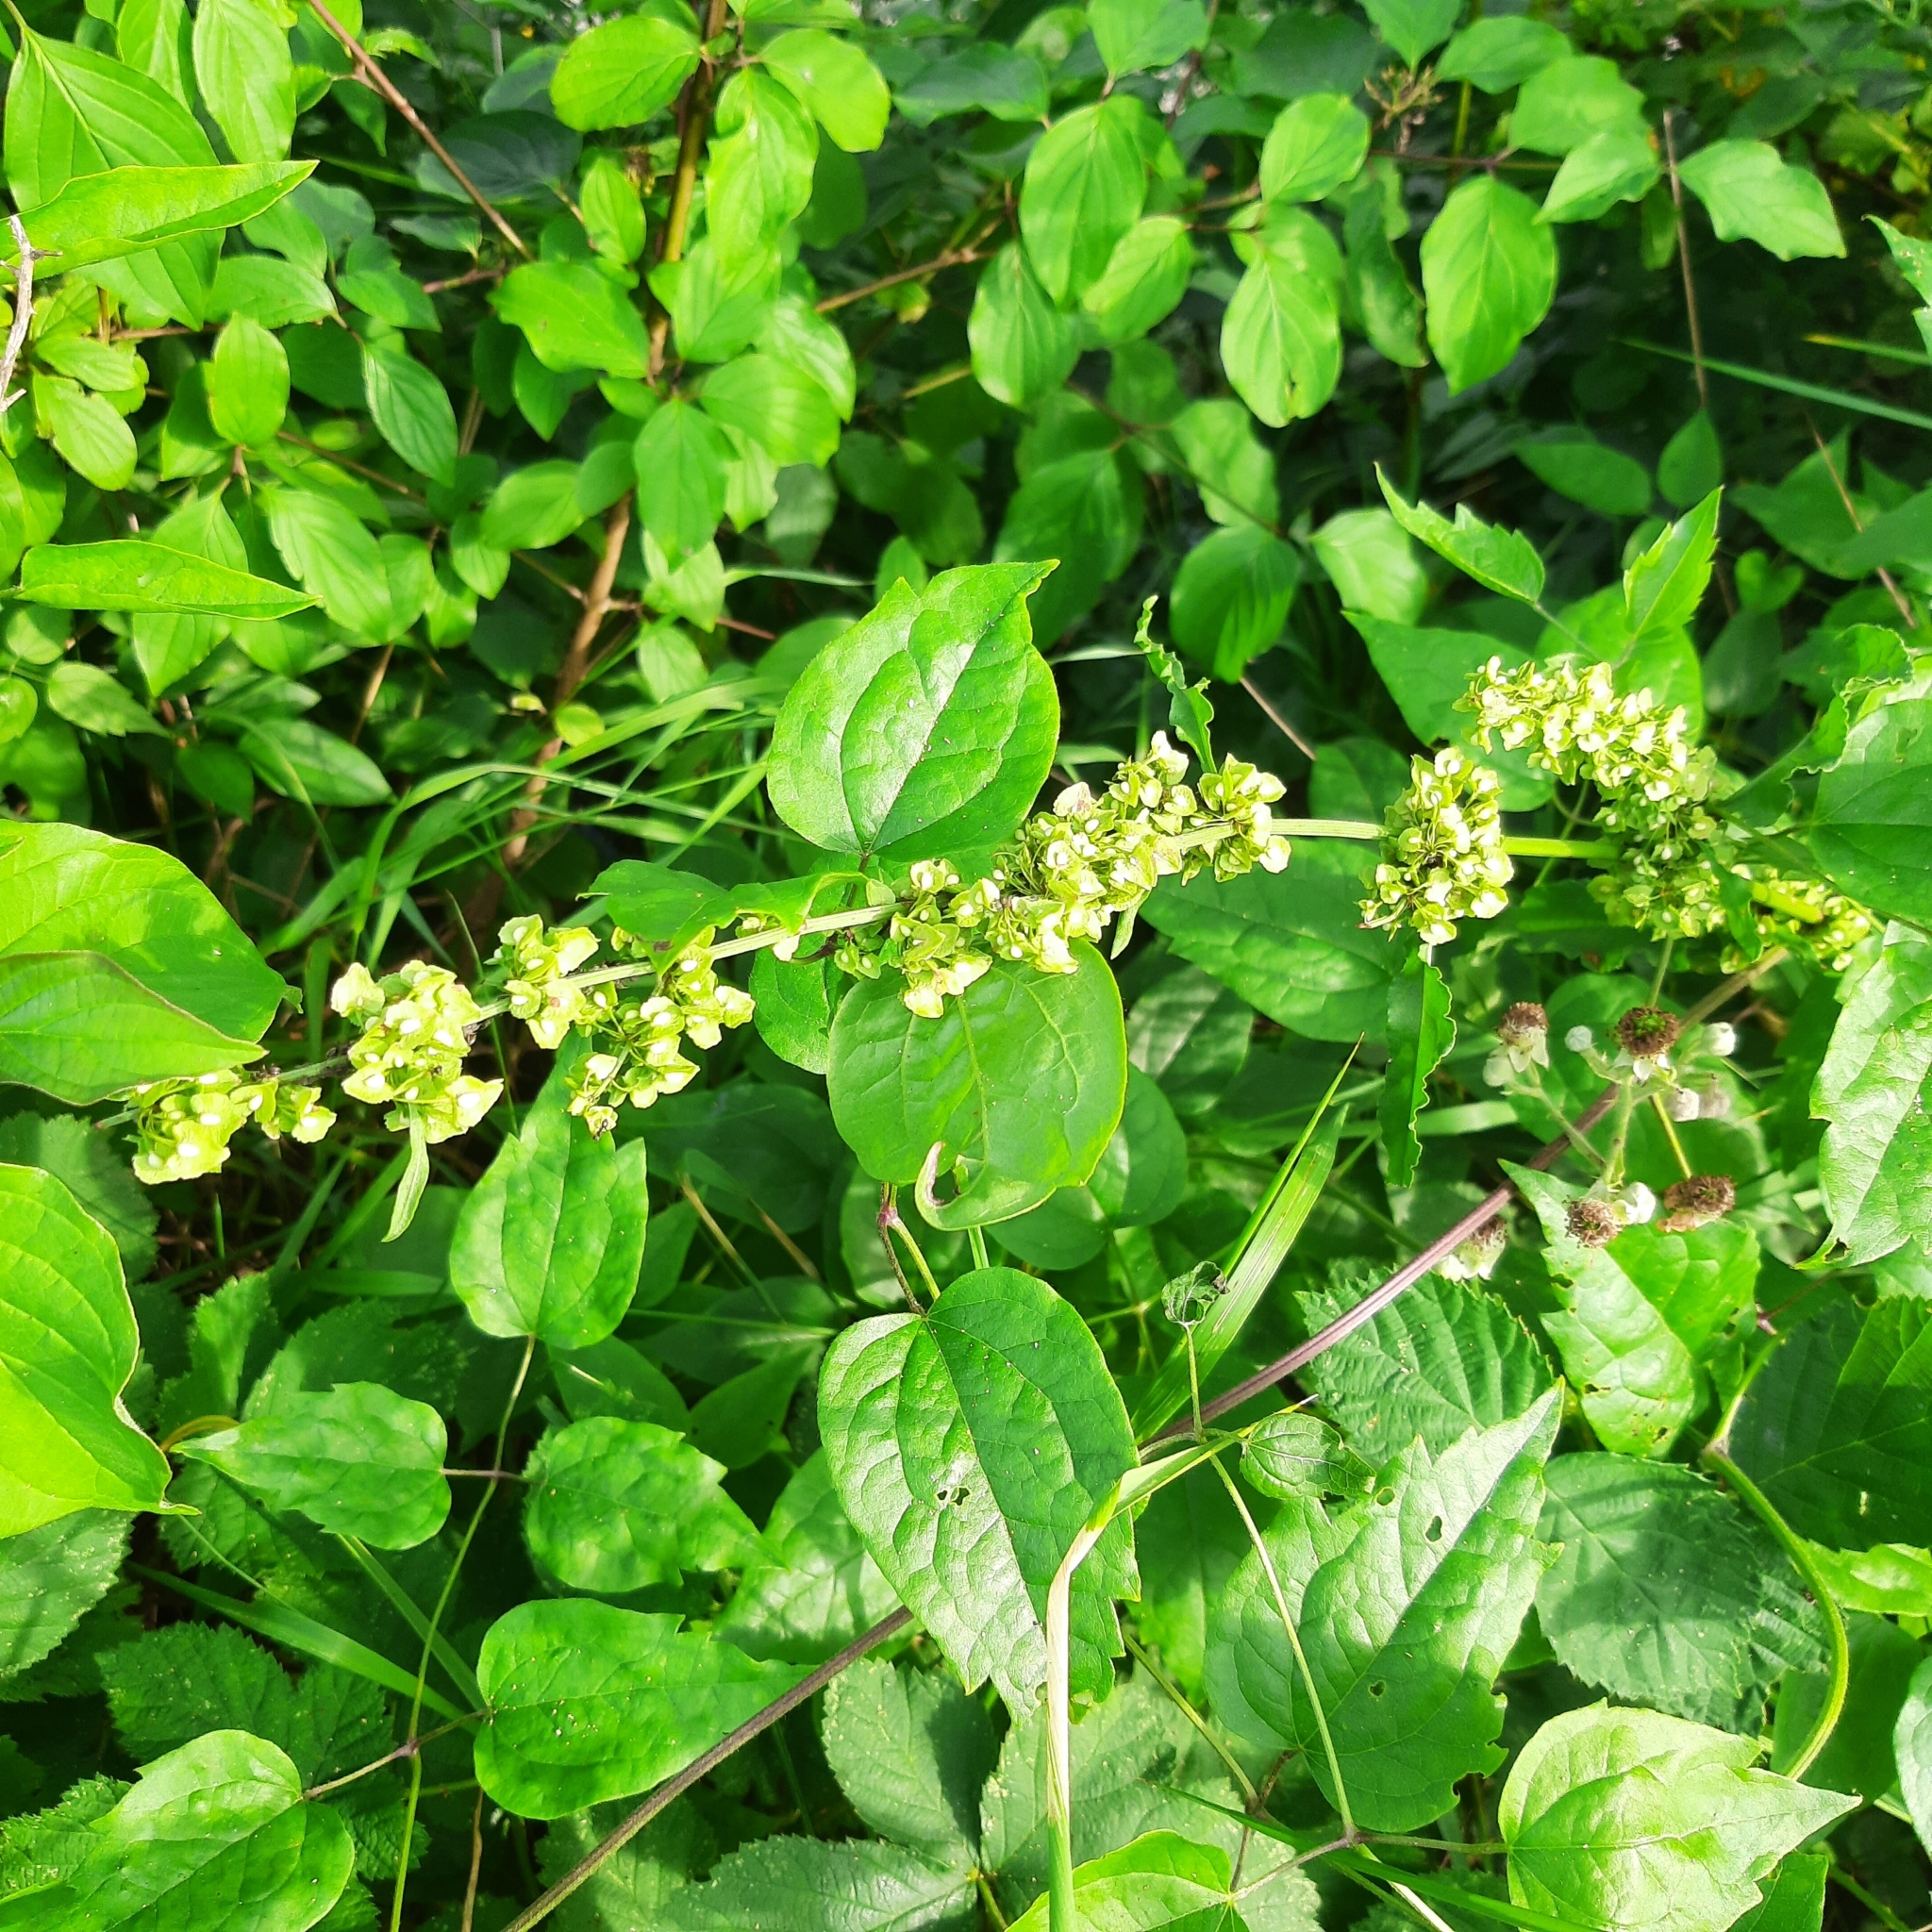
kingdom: Plantae
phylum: Tracheophyta
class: Magnoliopsida
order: Caryophyllales
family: Polygonaceae
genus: Rumex
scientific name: Rumex
